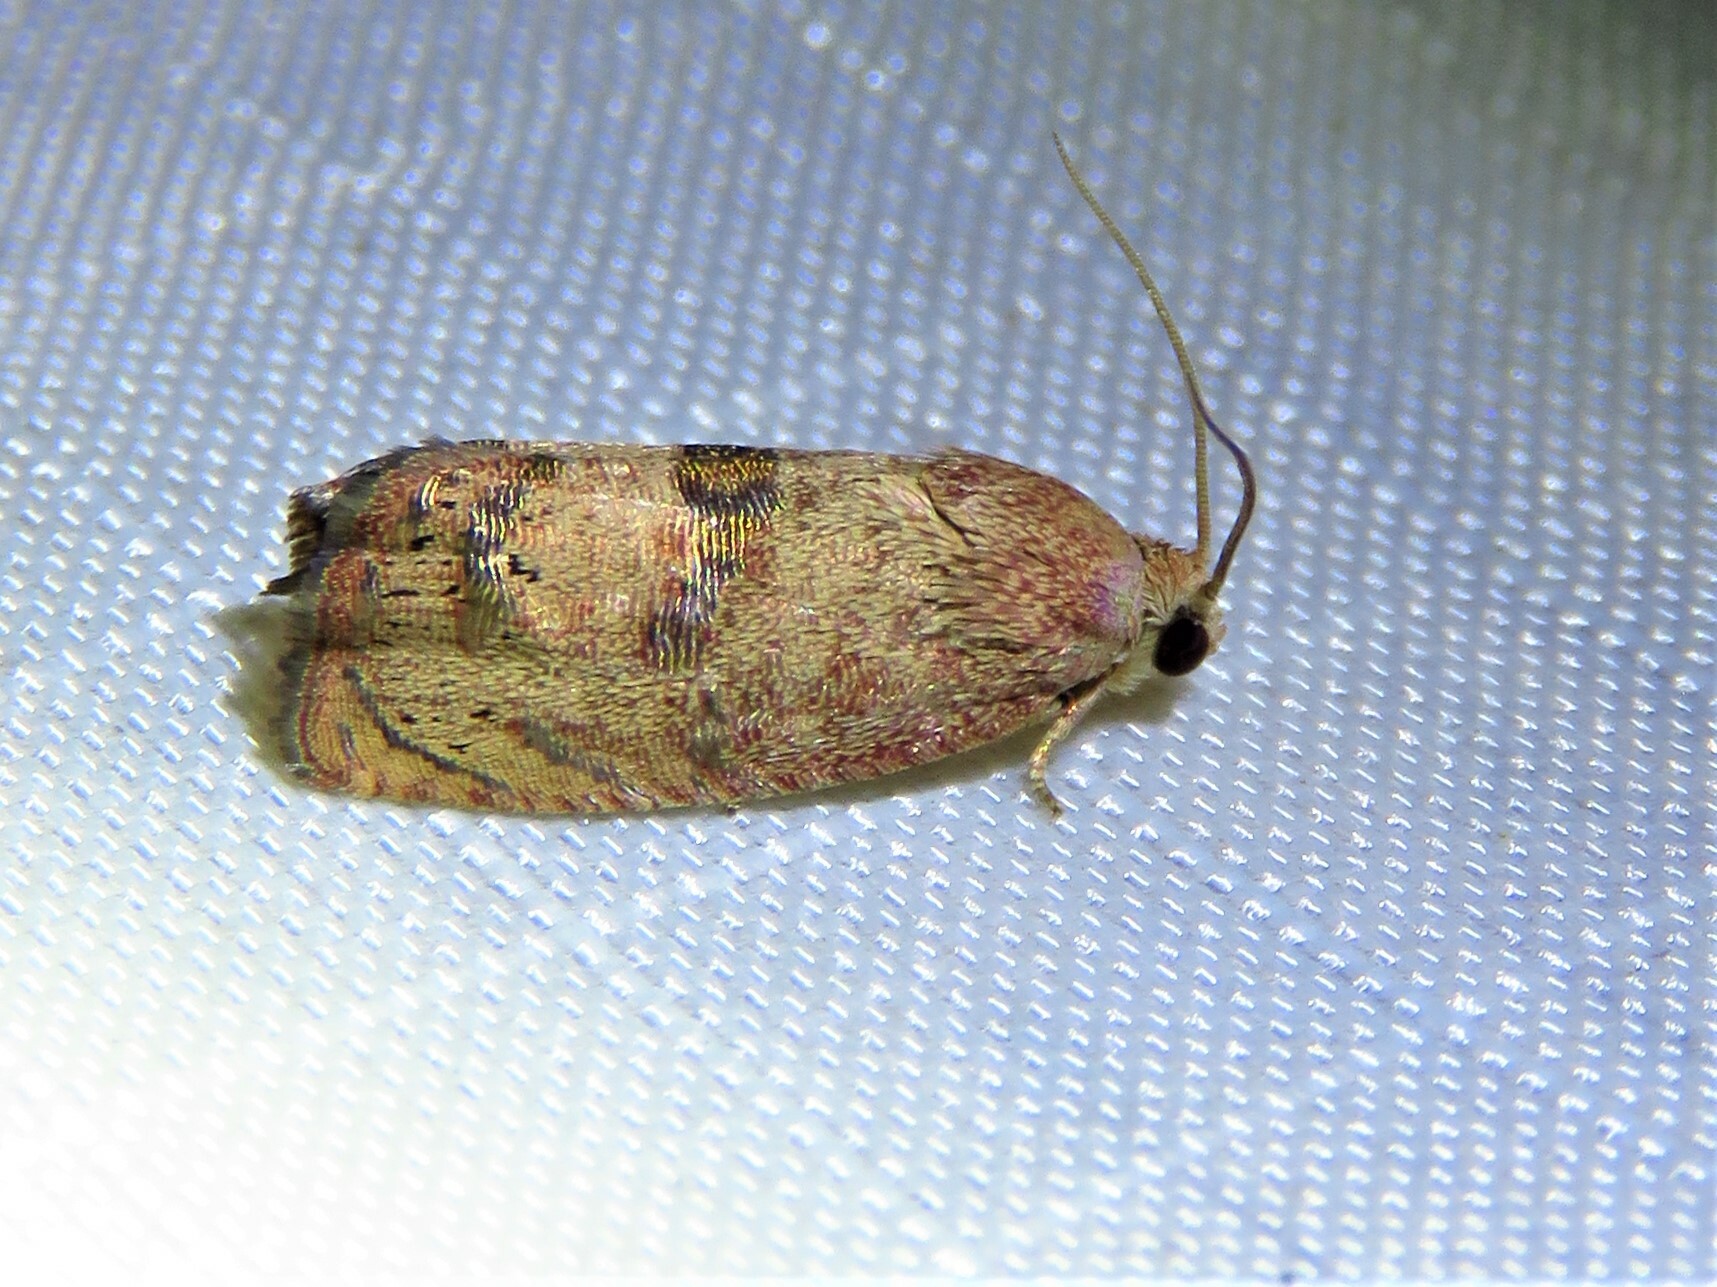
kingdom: Animalia
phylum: Arthropoda
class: Insecta
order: Lepidoptera
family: Tortricidae
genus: Cydia
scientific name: Cydia latiferreana
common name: Filbertworm moth
